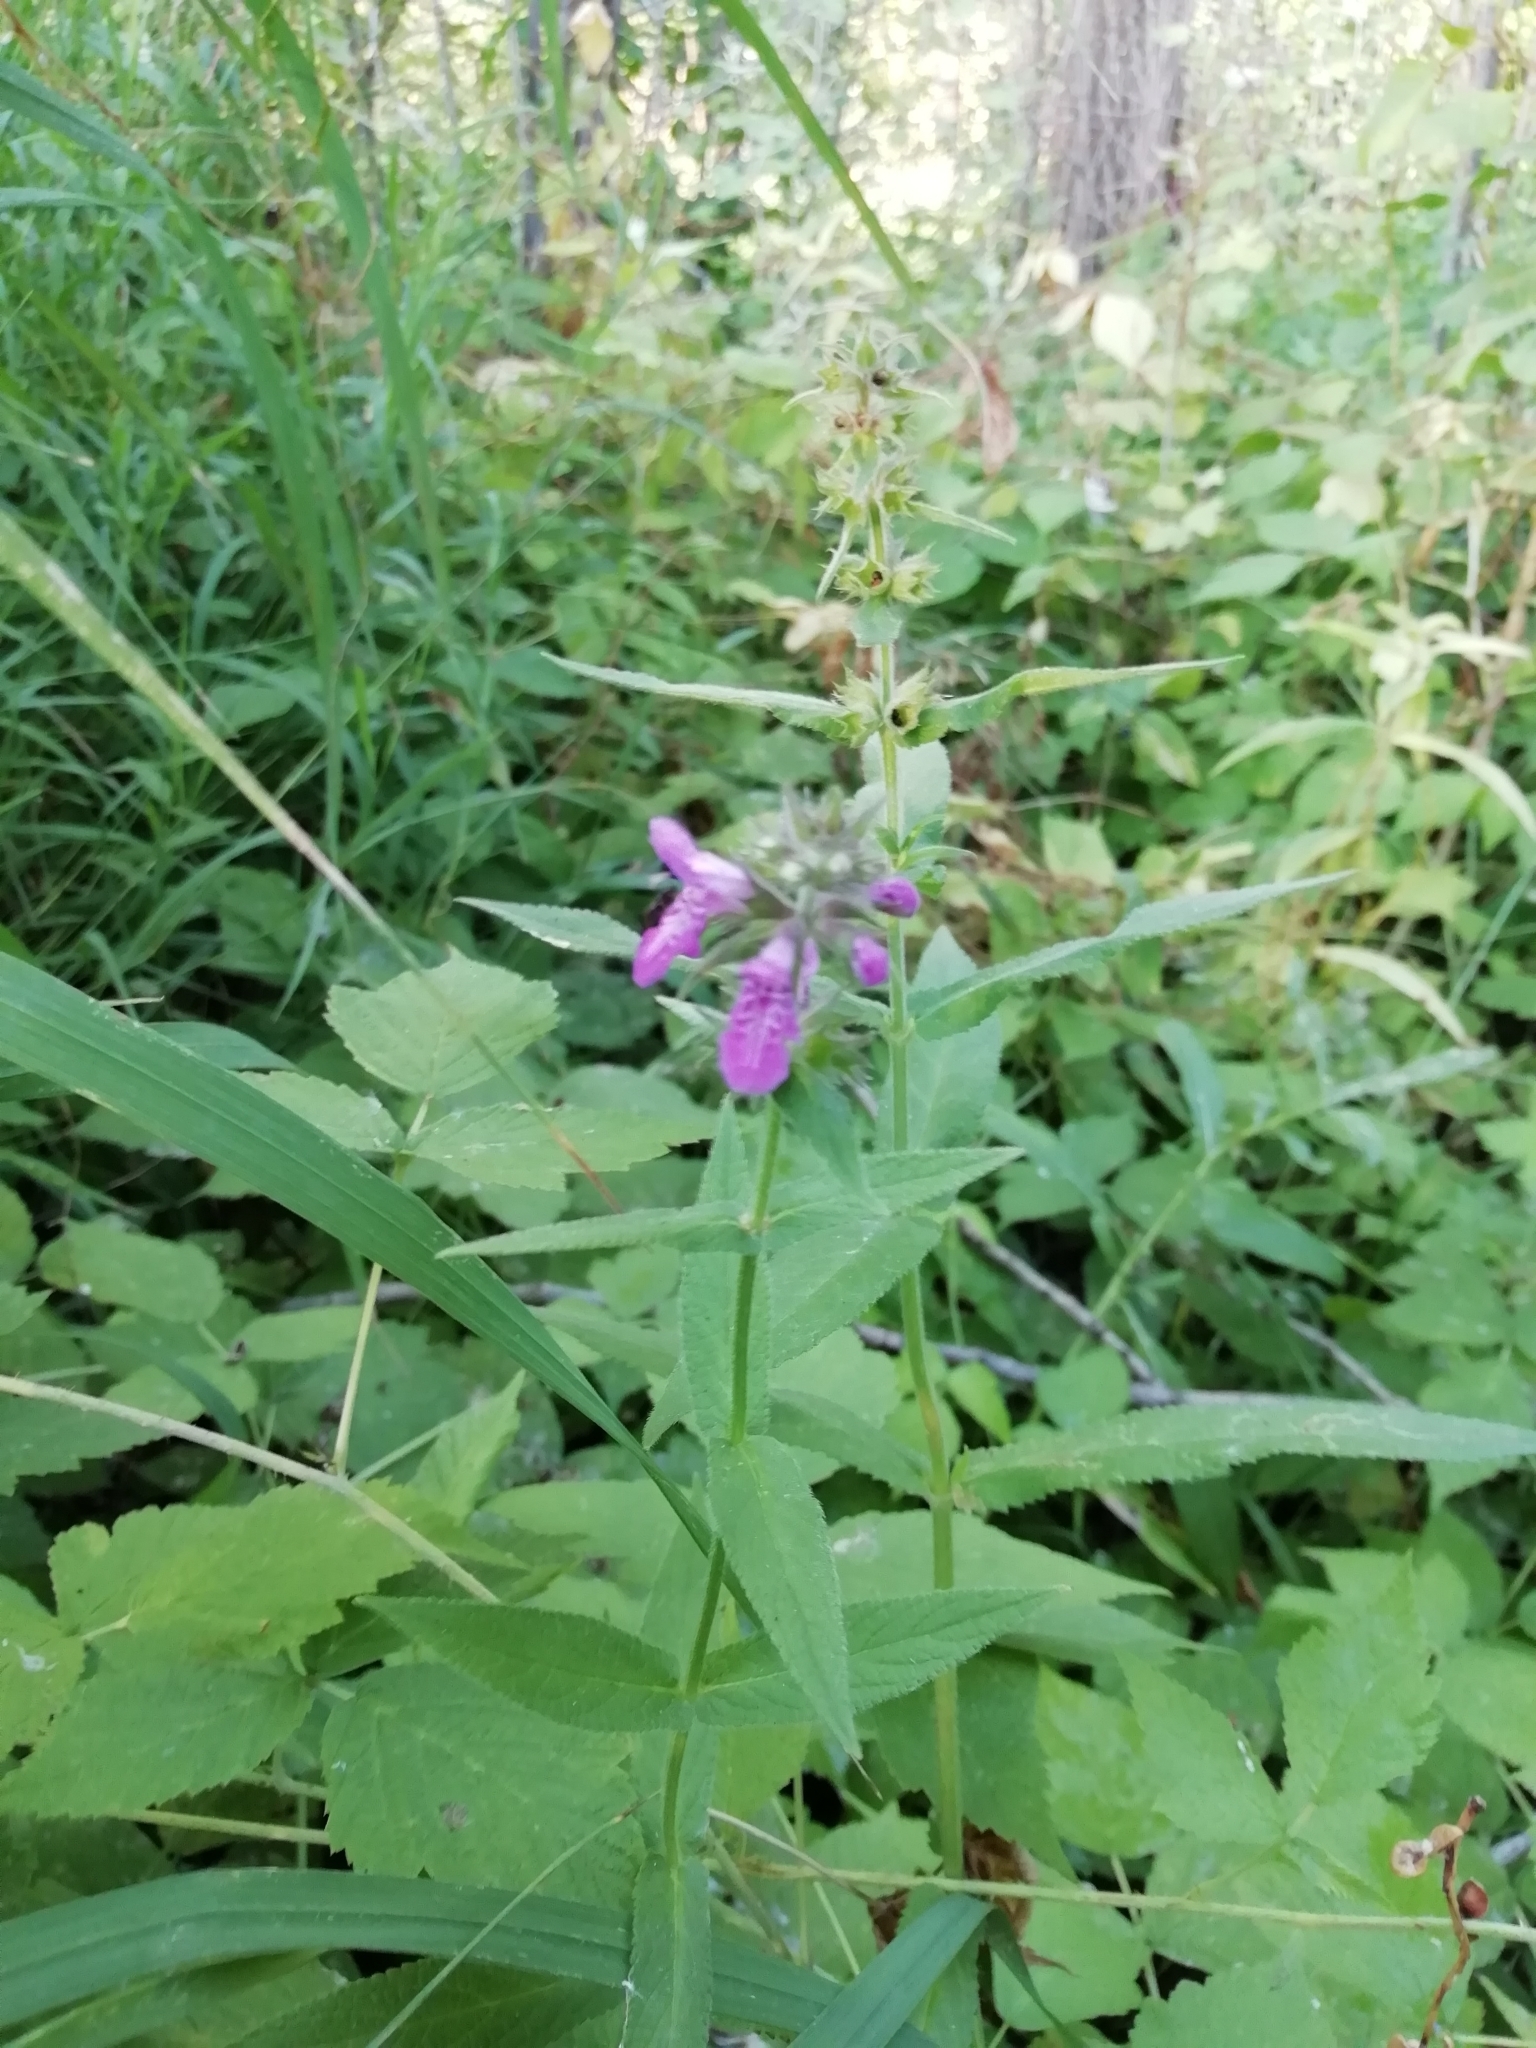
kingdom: Plantae
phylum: Tracheophyta
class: Magnoliopsida
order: Lamiales
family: Lamiaceae
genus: Stachys
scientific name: Stachys sylvatica
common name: Hedge woundwort
